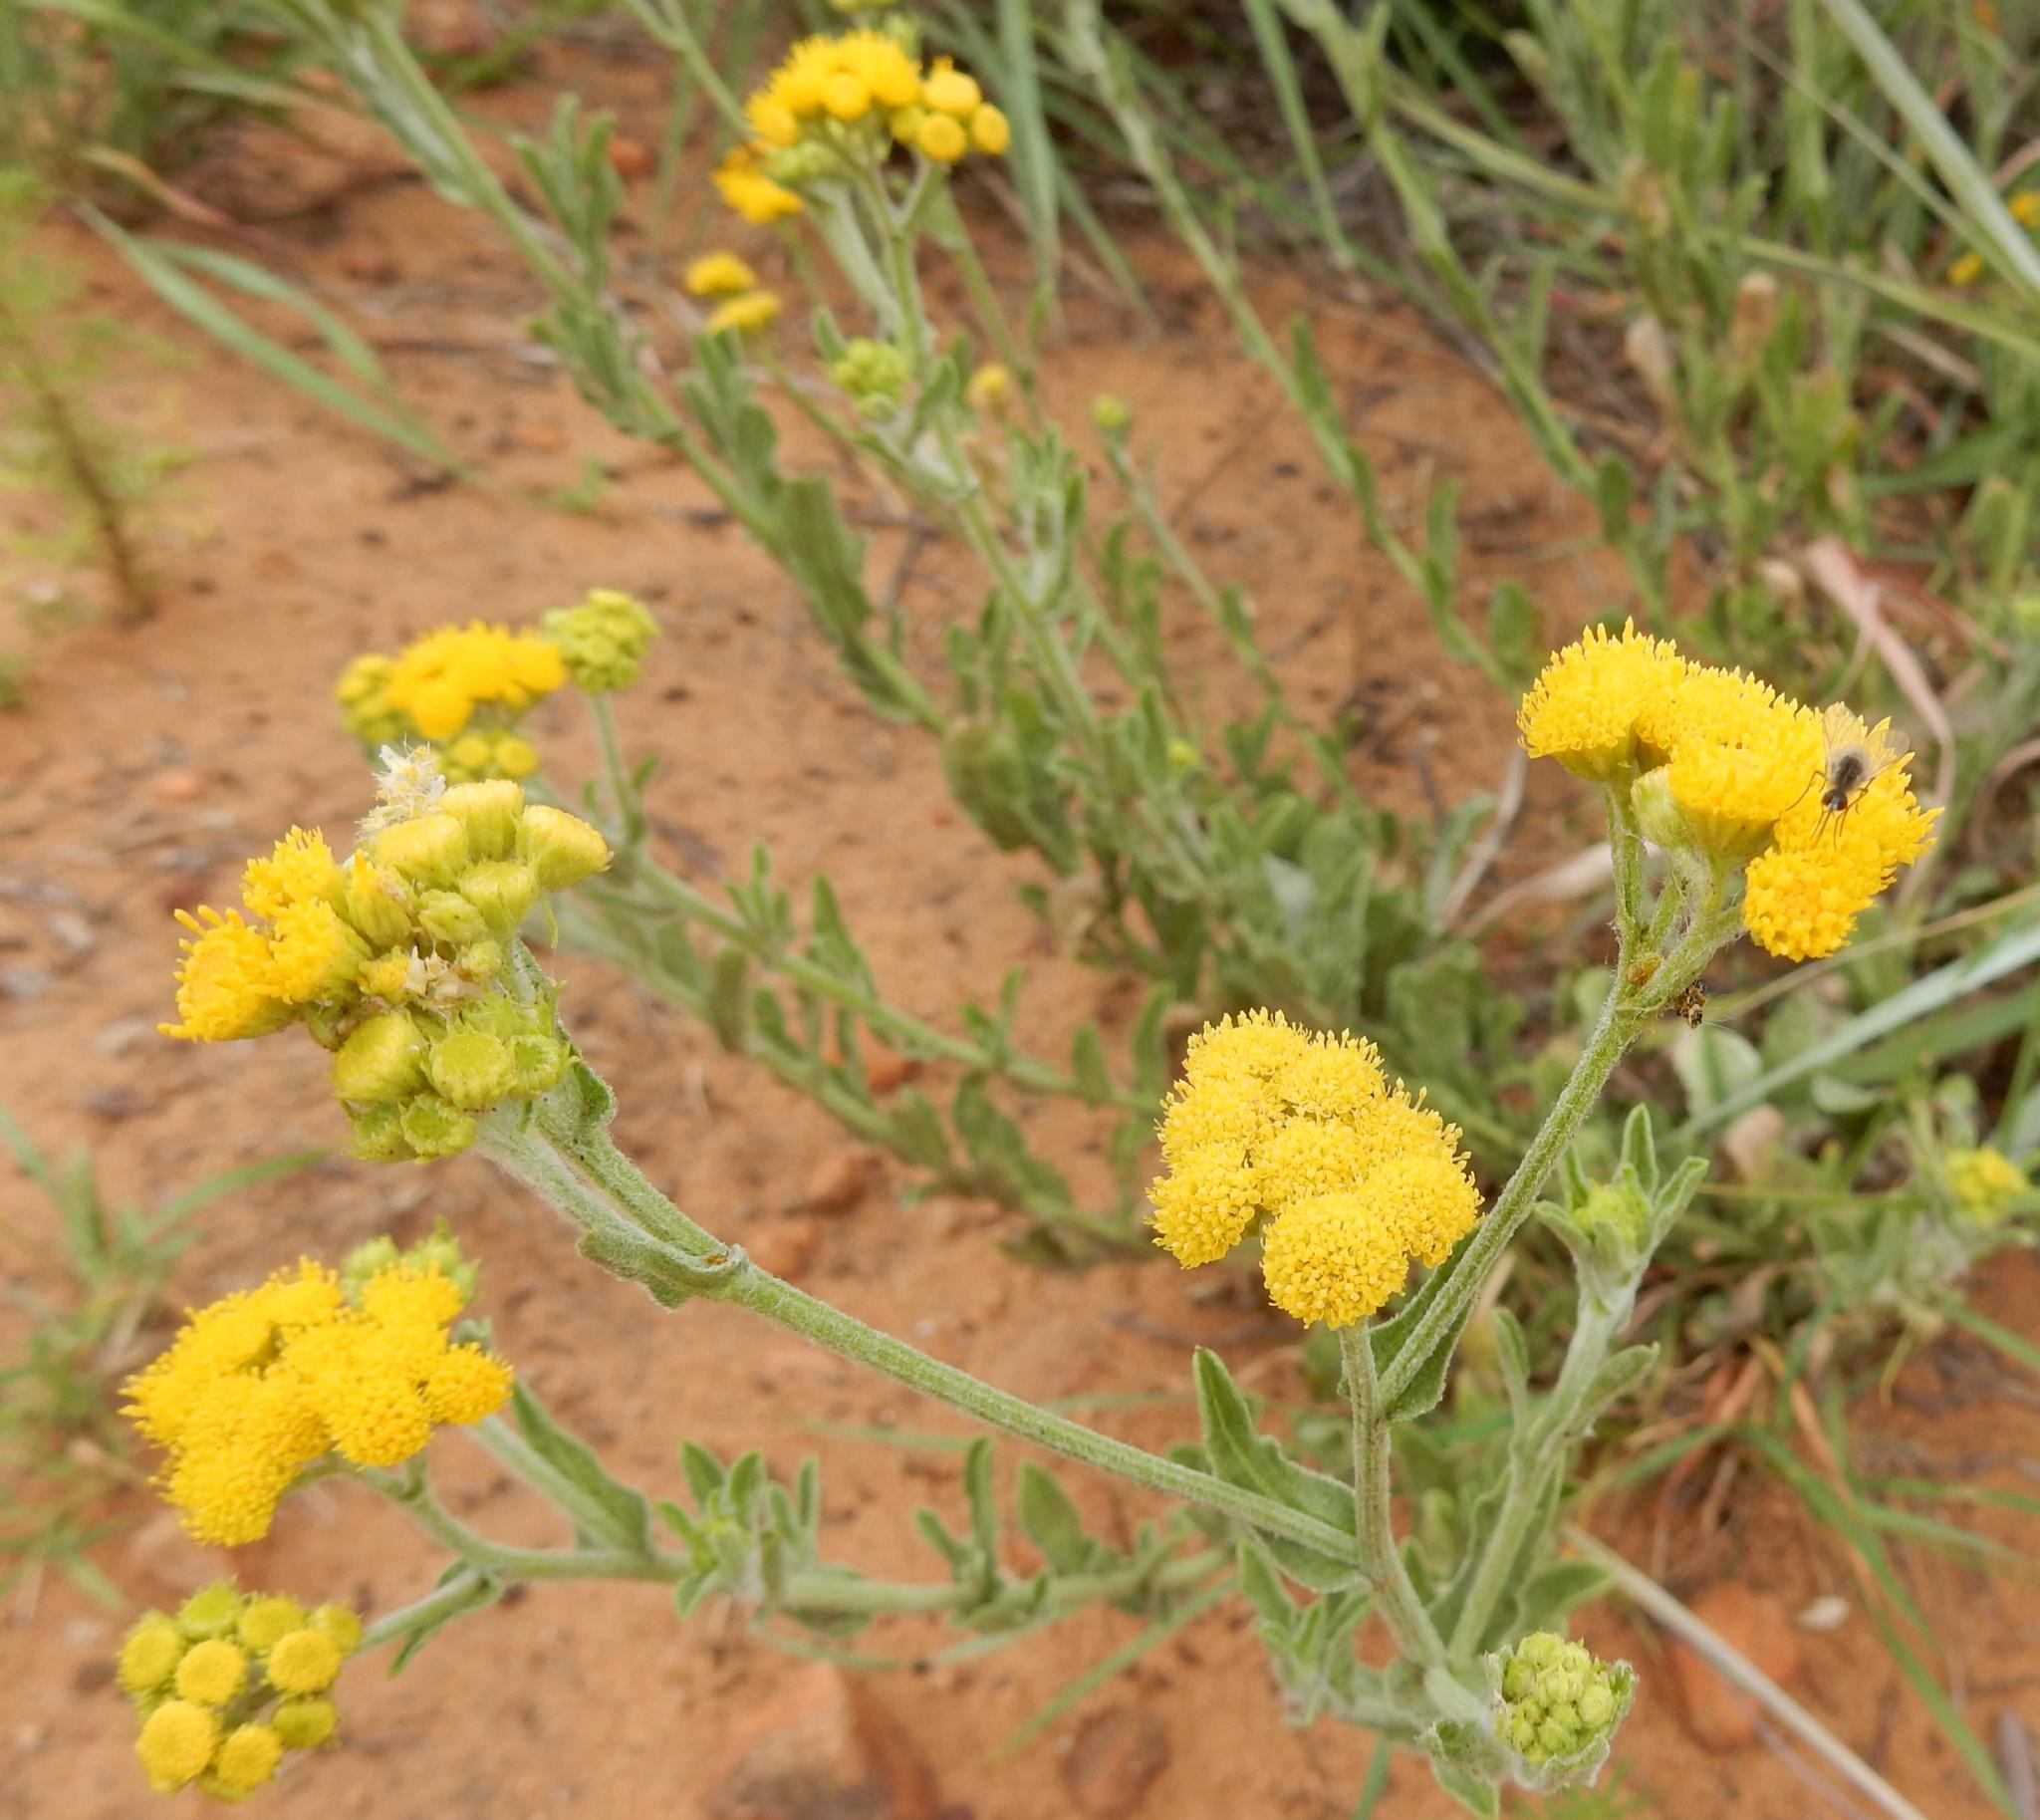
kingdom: Plantae
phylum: Tracheophyta
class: Magnoliopsida
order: Asterales
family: Asteraceae
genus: Nidorella
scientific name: Nidorella hottentotica
